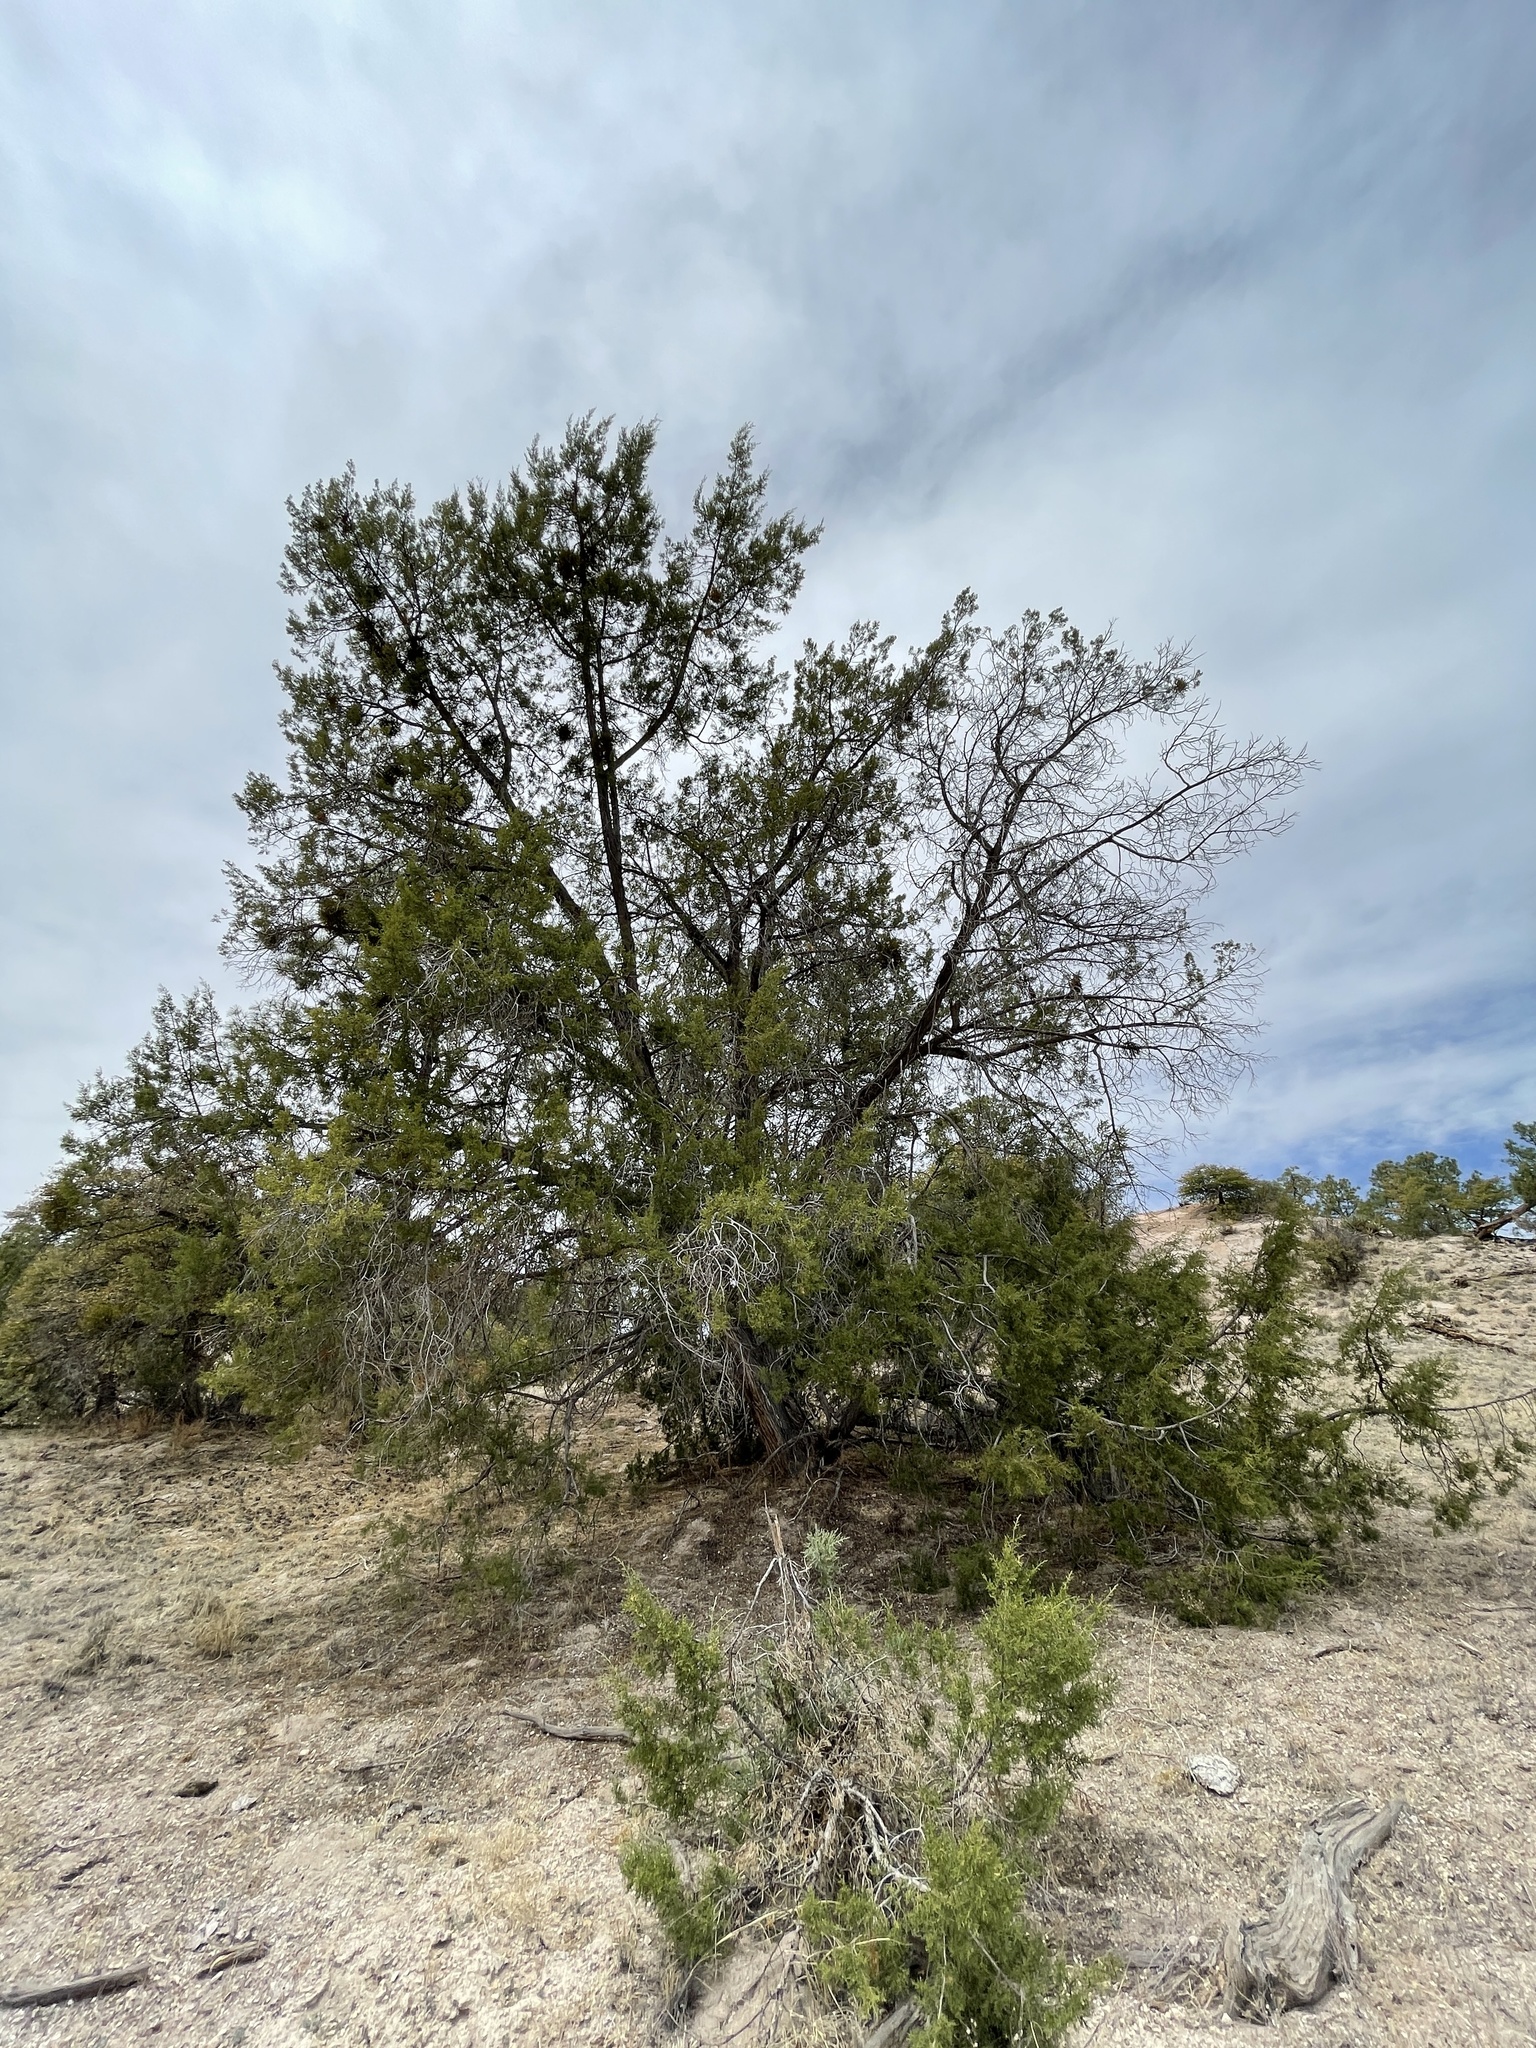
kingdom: Plantae
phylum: Tracheophyta
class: Pinopsida
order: Pinales
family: Cupressaceae
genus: Juniperus
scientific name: Juniperus monosperma
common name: One-seed juniper
